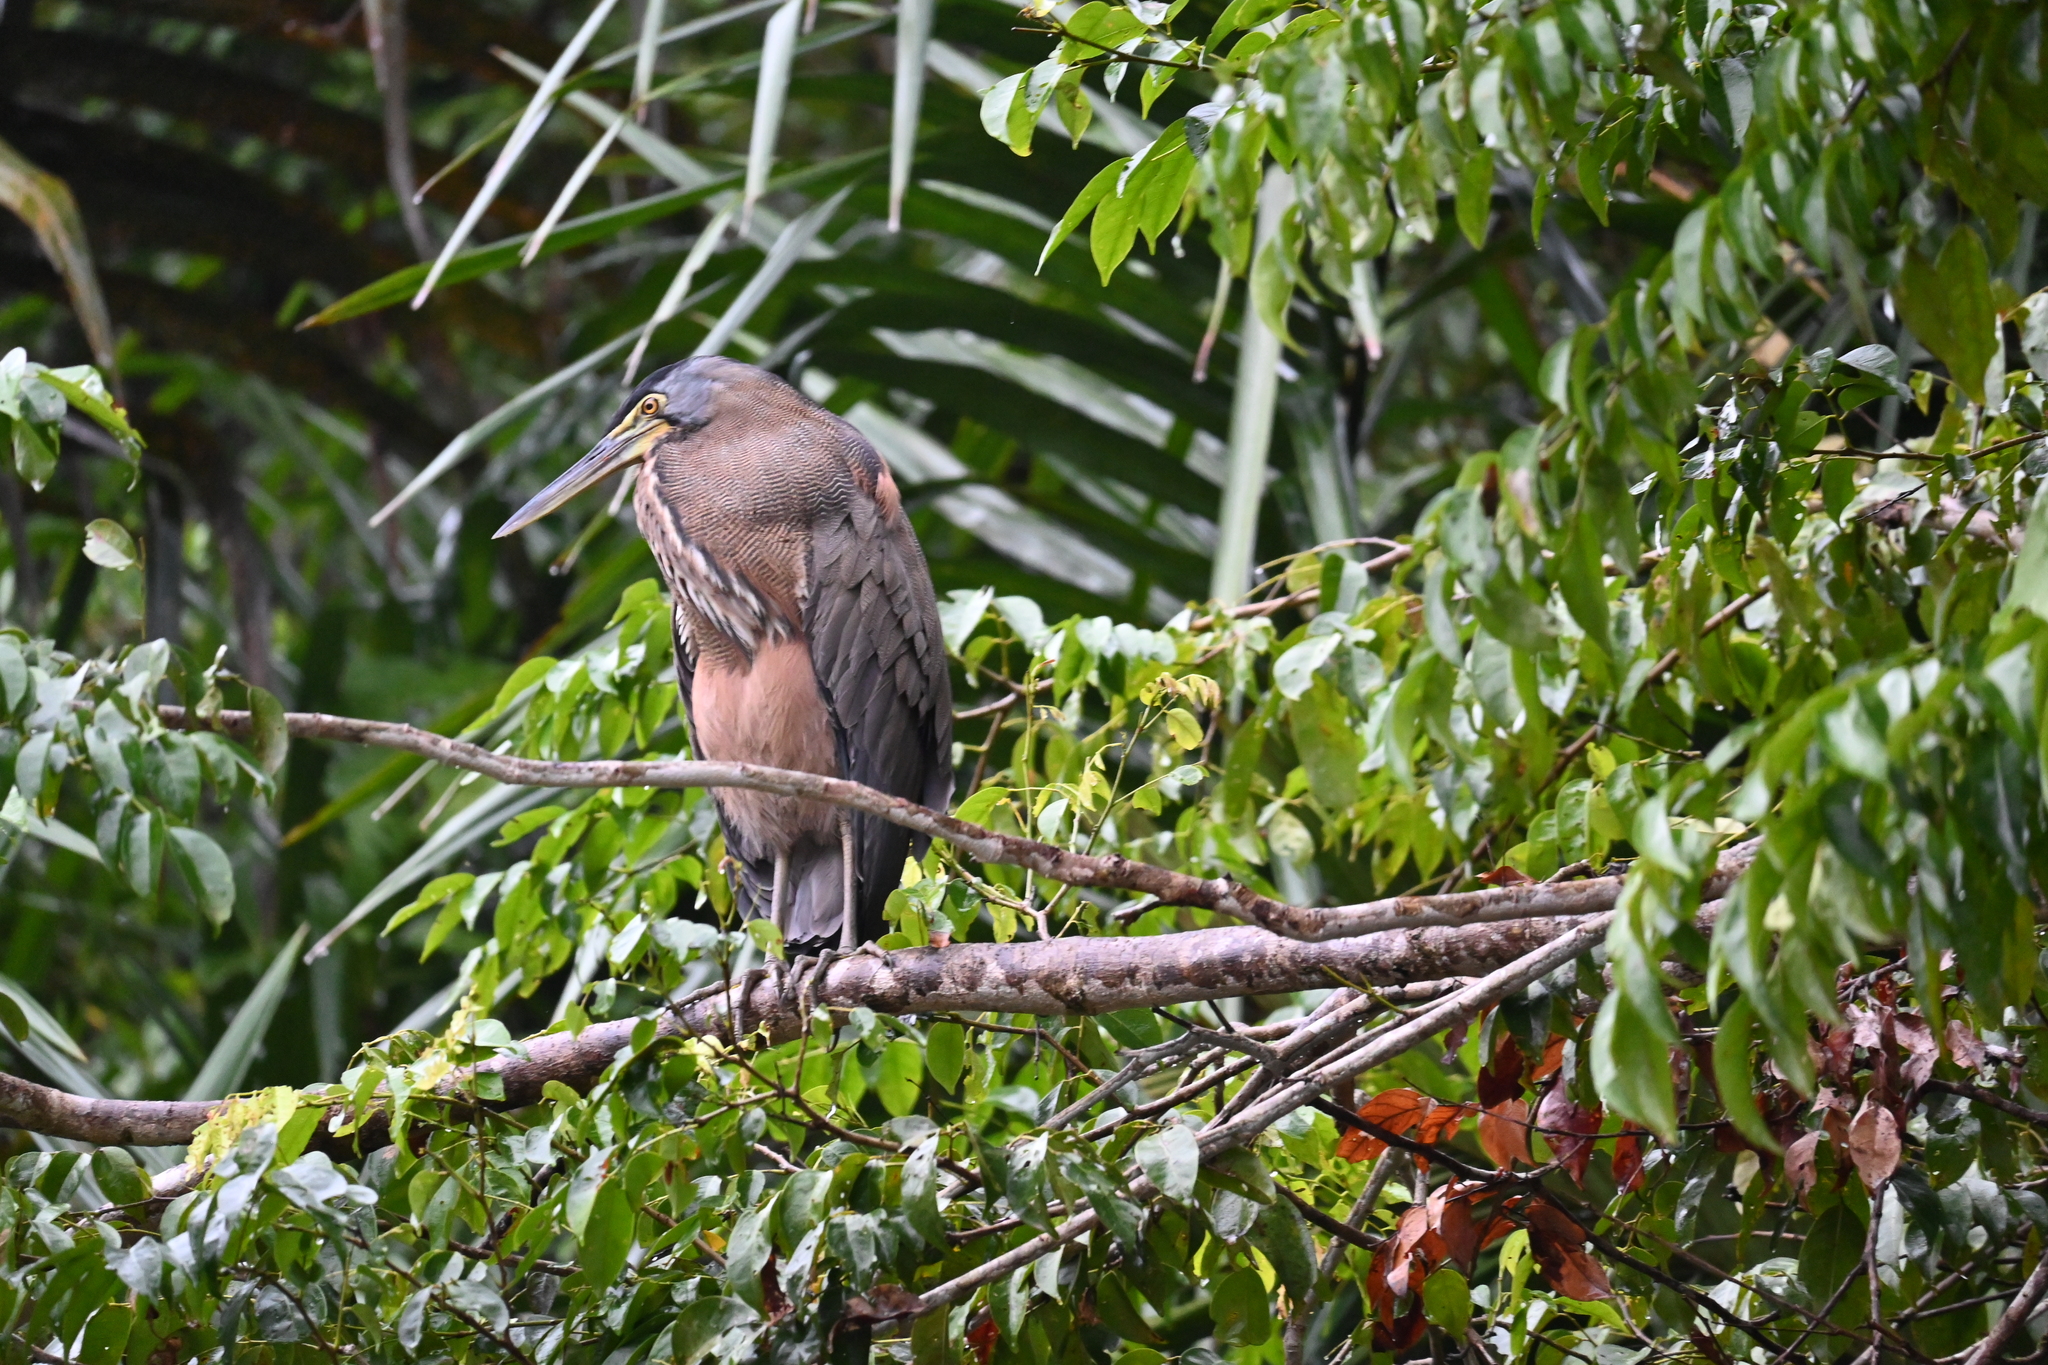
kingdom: Animalia
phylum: Chordata
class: Aves
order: Pelecaniformes
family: Ardeidae
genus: Tigrisoma
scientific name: Tigrisoma mexicanum
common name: Bare-throated tiger-heron
